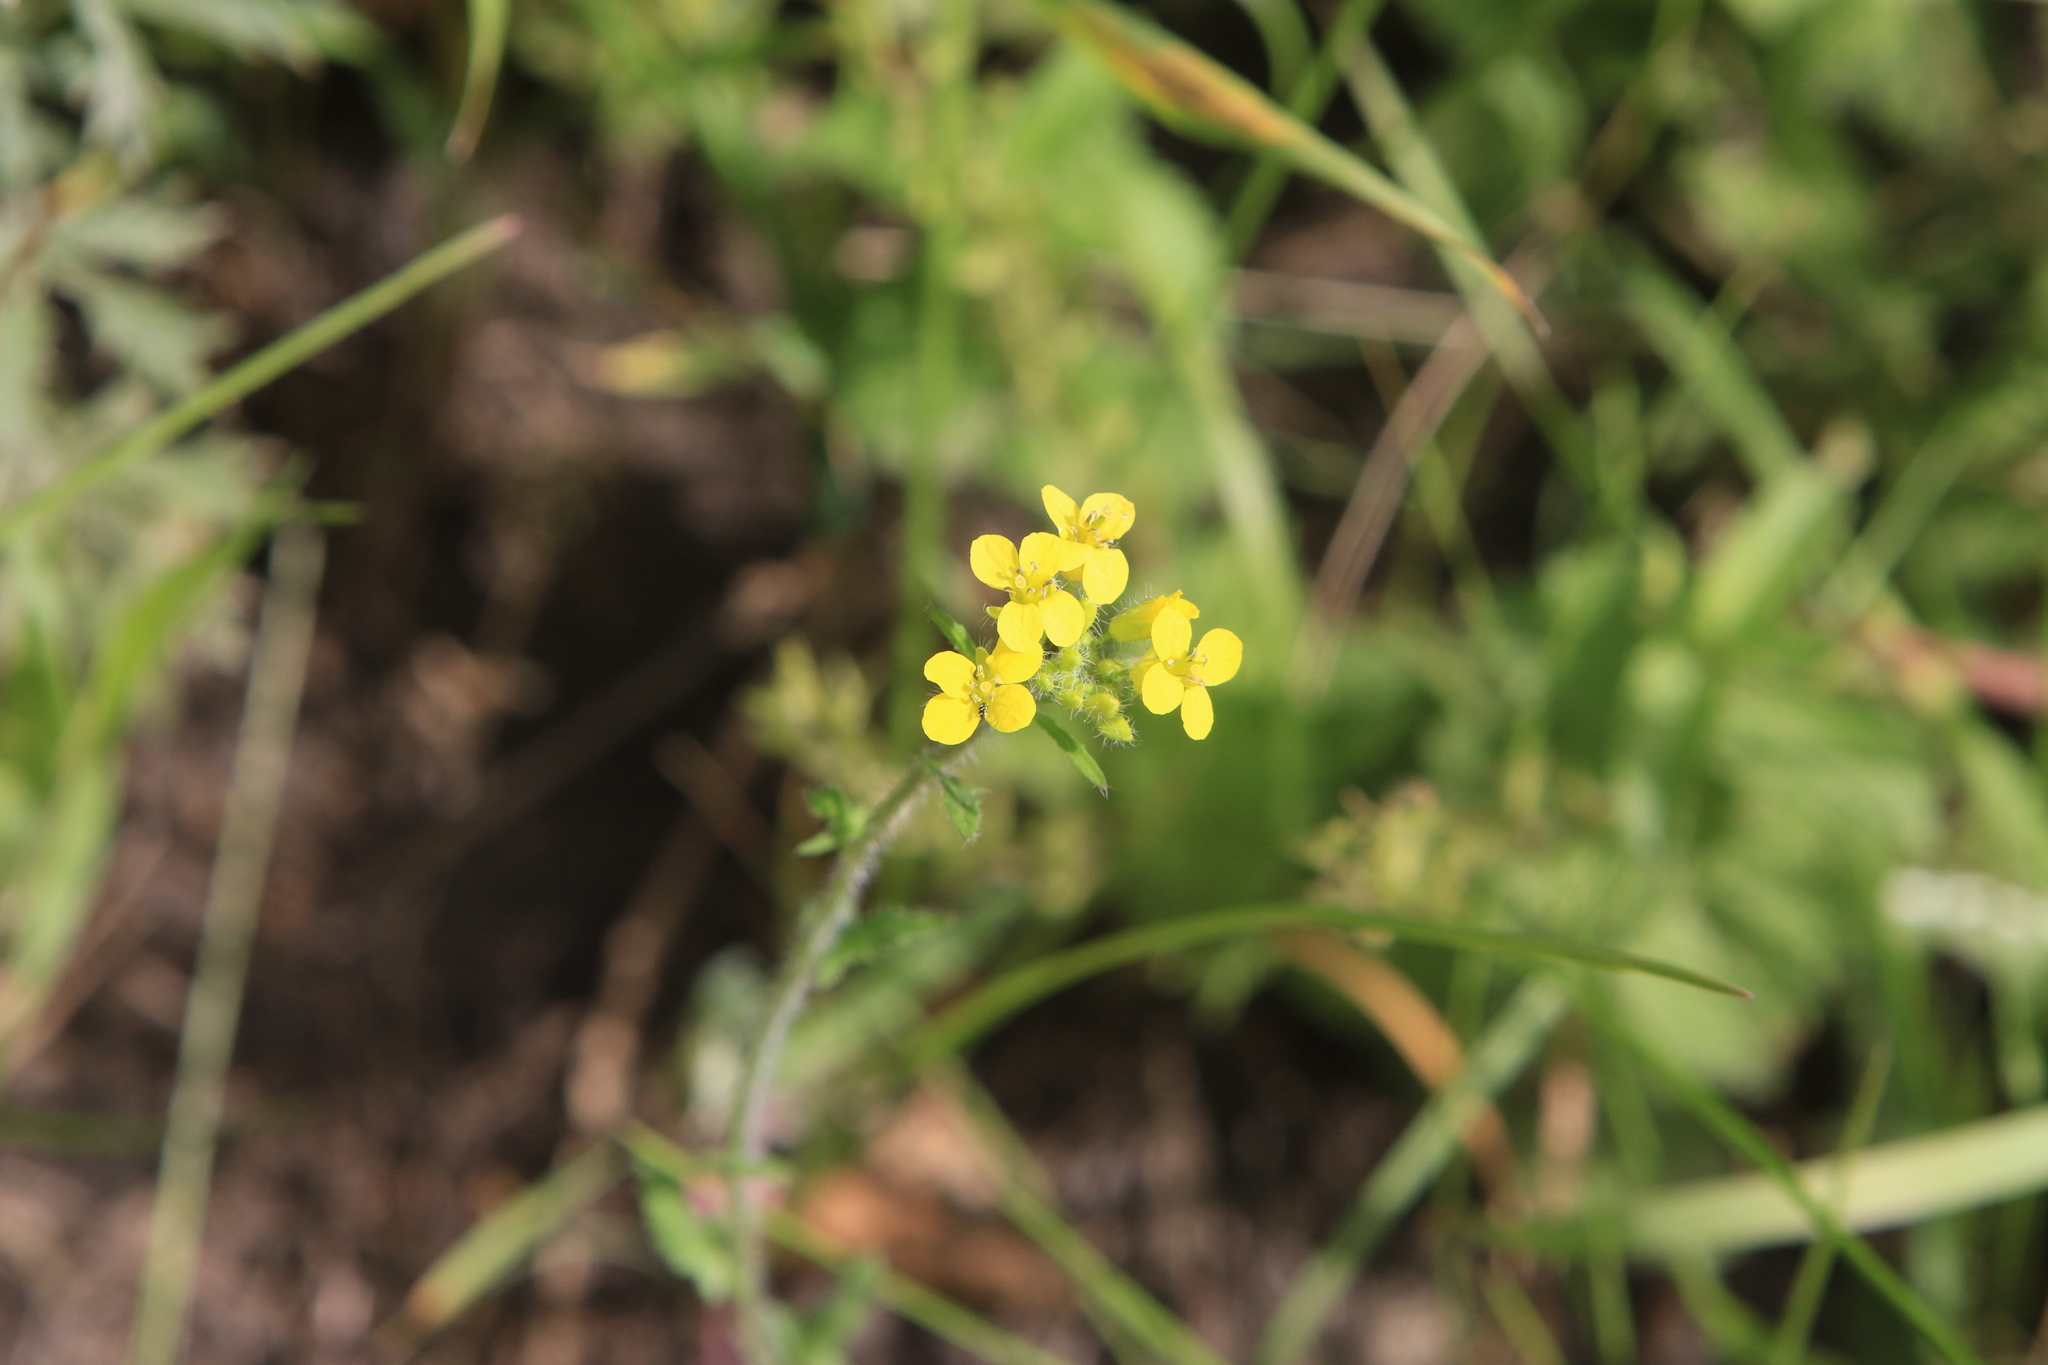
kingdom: Plantae
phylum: Tracheophyta
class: Magnoliopsida
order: Brassicales
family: Brassicaceae
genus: Sisymbrium
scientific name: Sisymbrium loeselii
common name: False london-rocket
